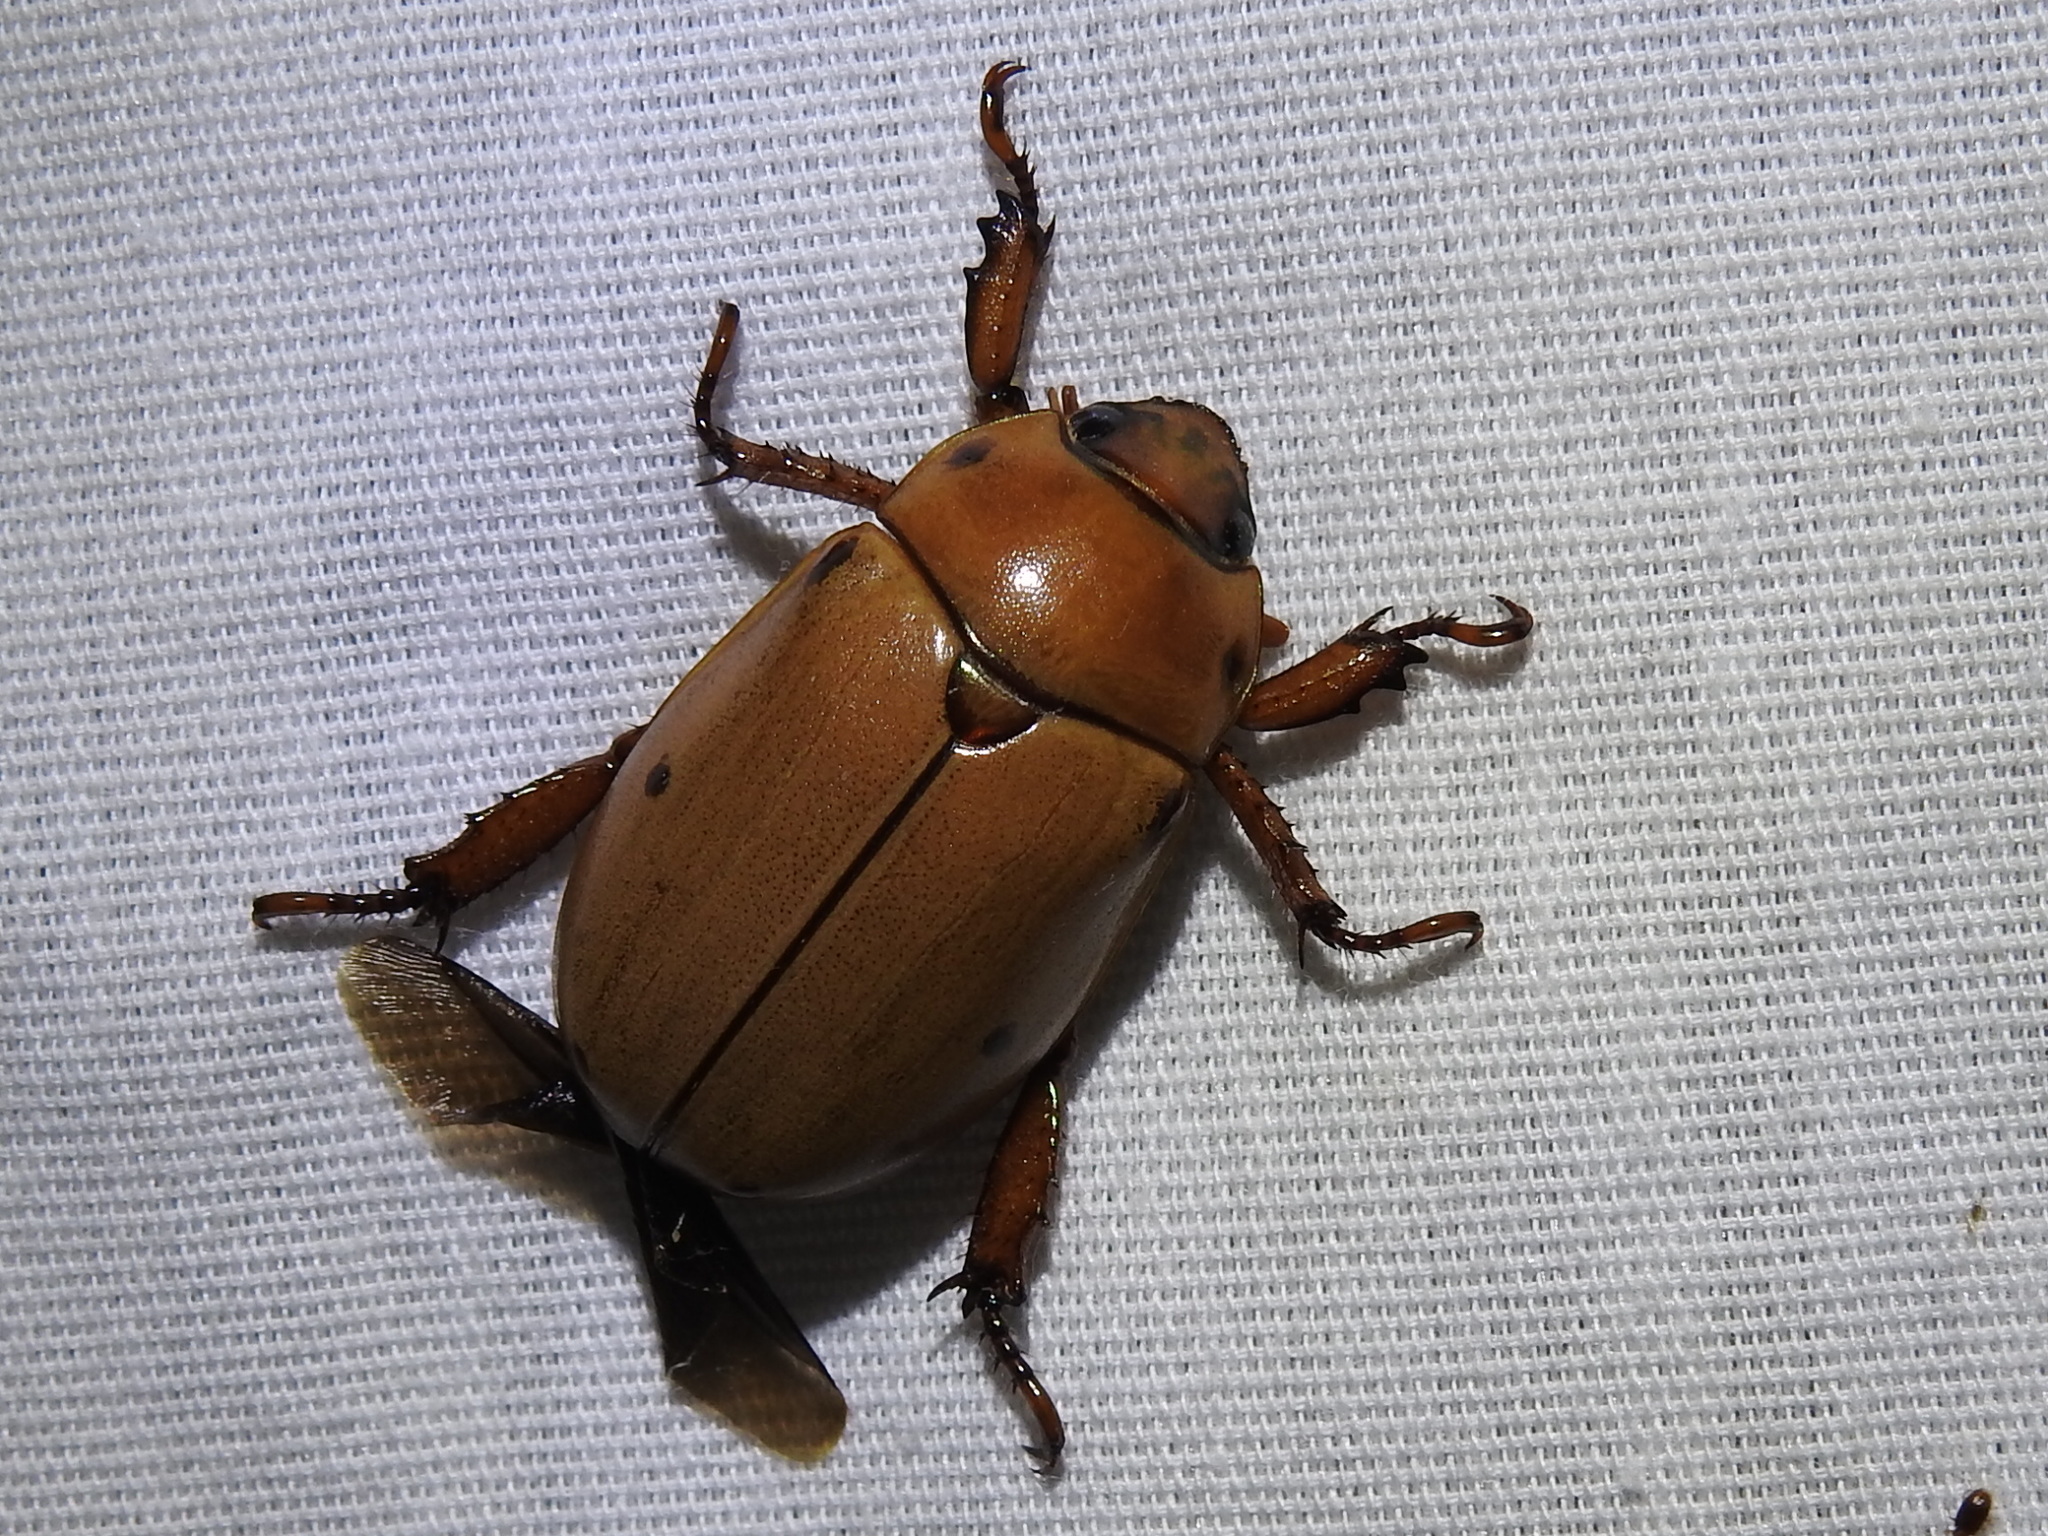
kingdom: Animalia
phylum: Arthropoda
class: Insecta
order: Coleoptera
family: Scarabaeidae
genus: Pelidnota
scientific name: Pelidnota punctata
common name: Grapevine beetle
